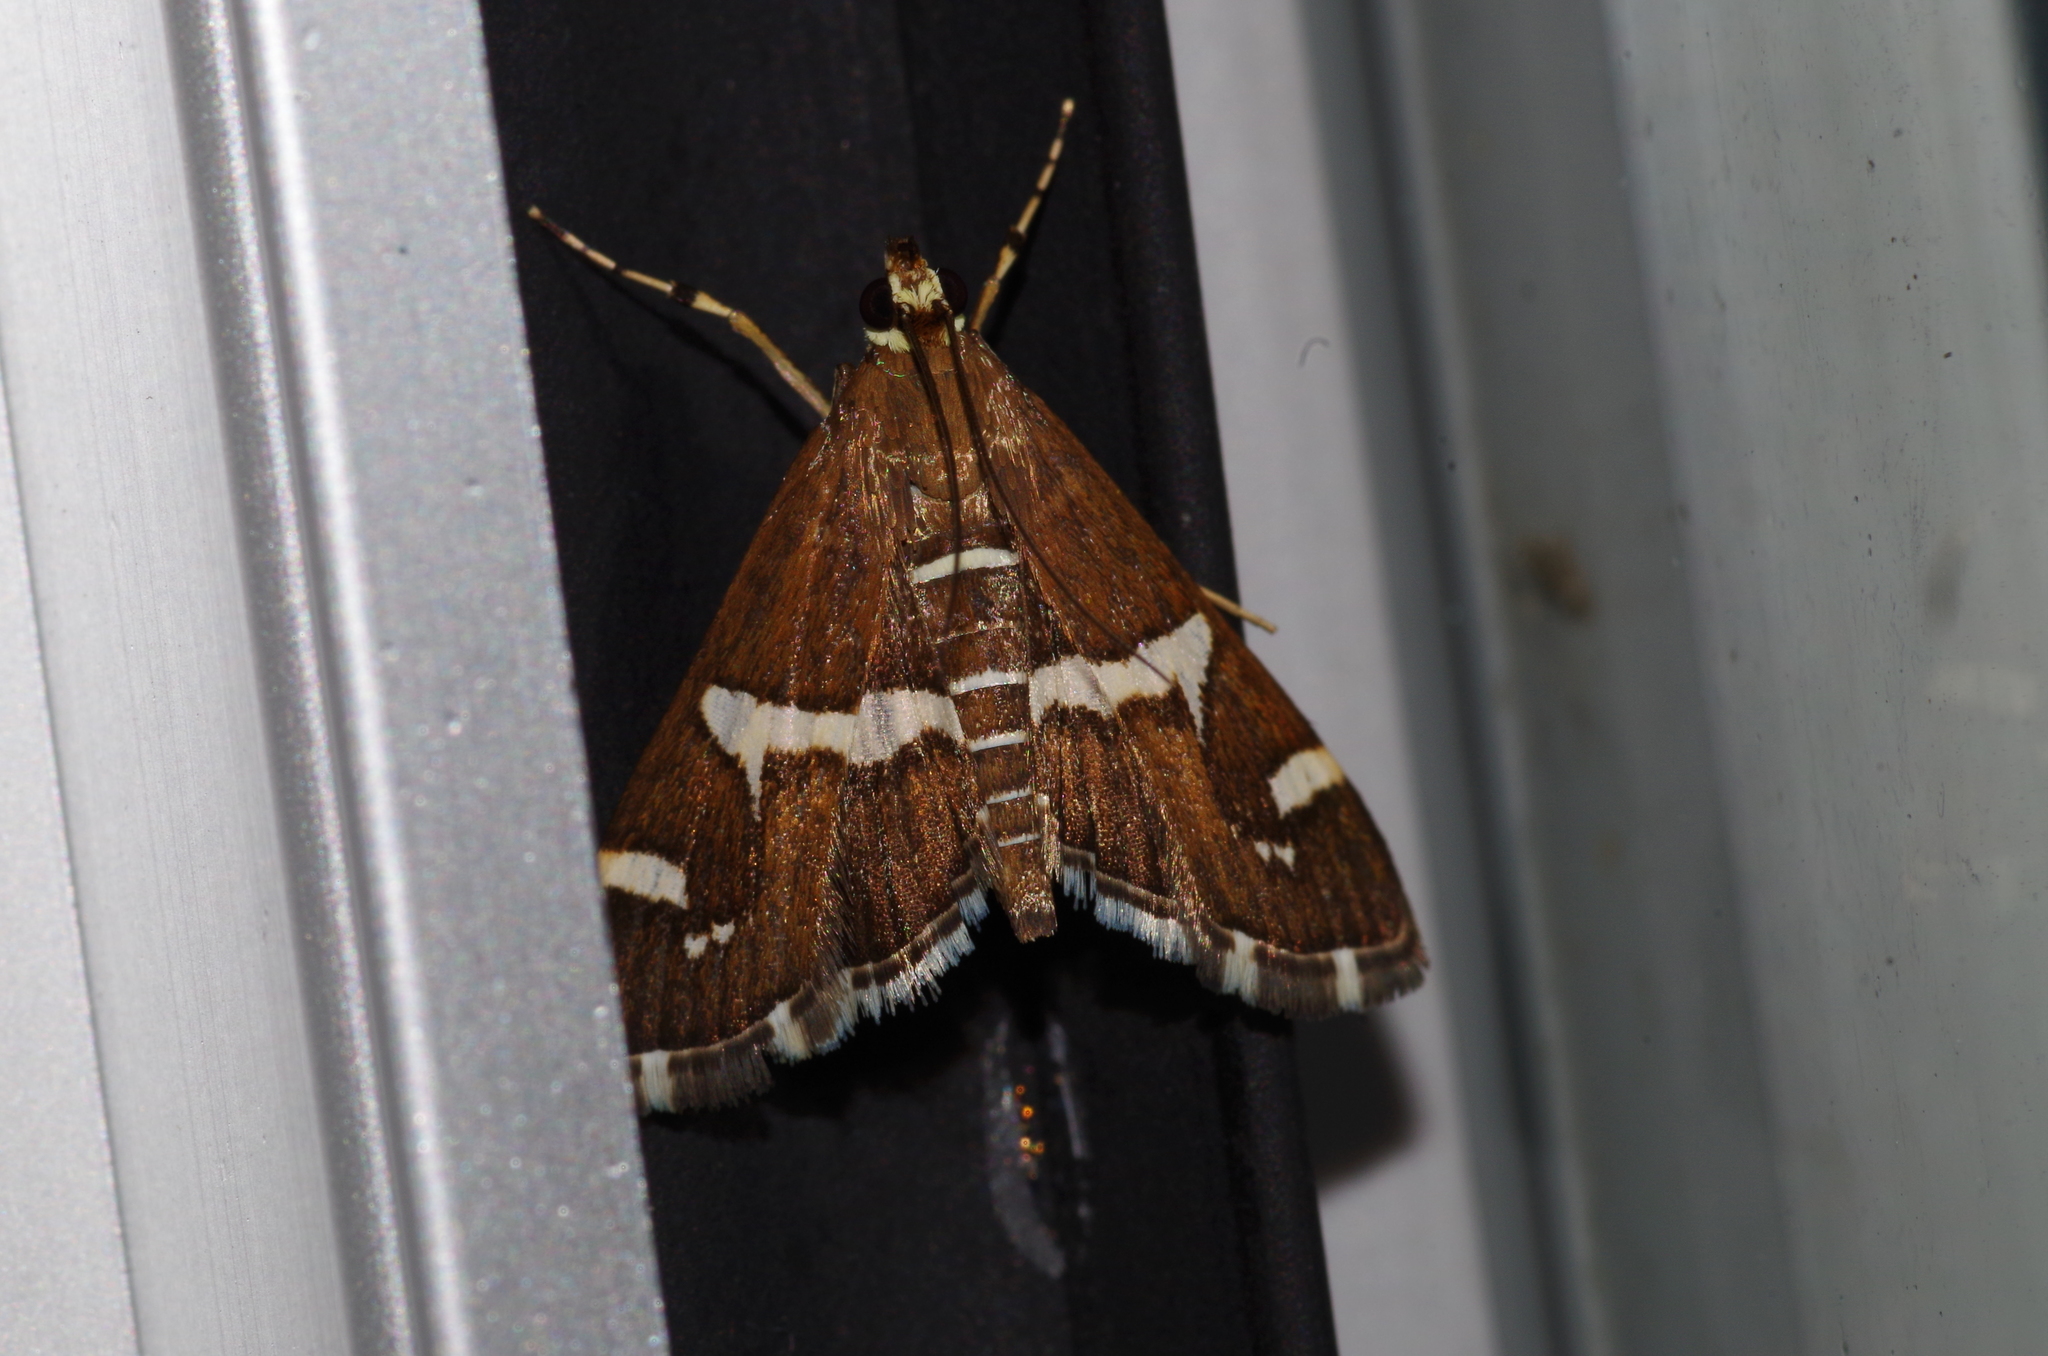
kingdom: Animalia
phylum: Arthropoda
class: Insecta
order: Lepidoptera
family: Crambidae
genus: Spoladea
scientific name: Spoladea recurvalis
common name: Beet webworm moth
